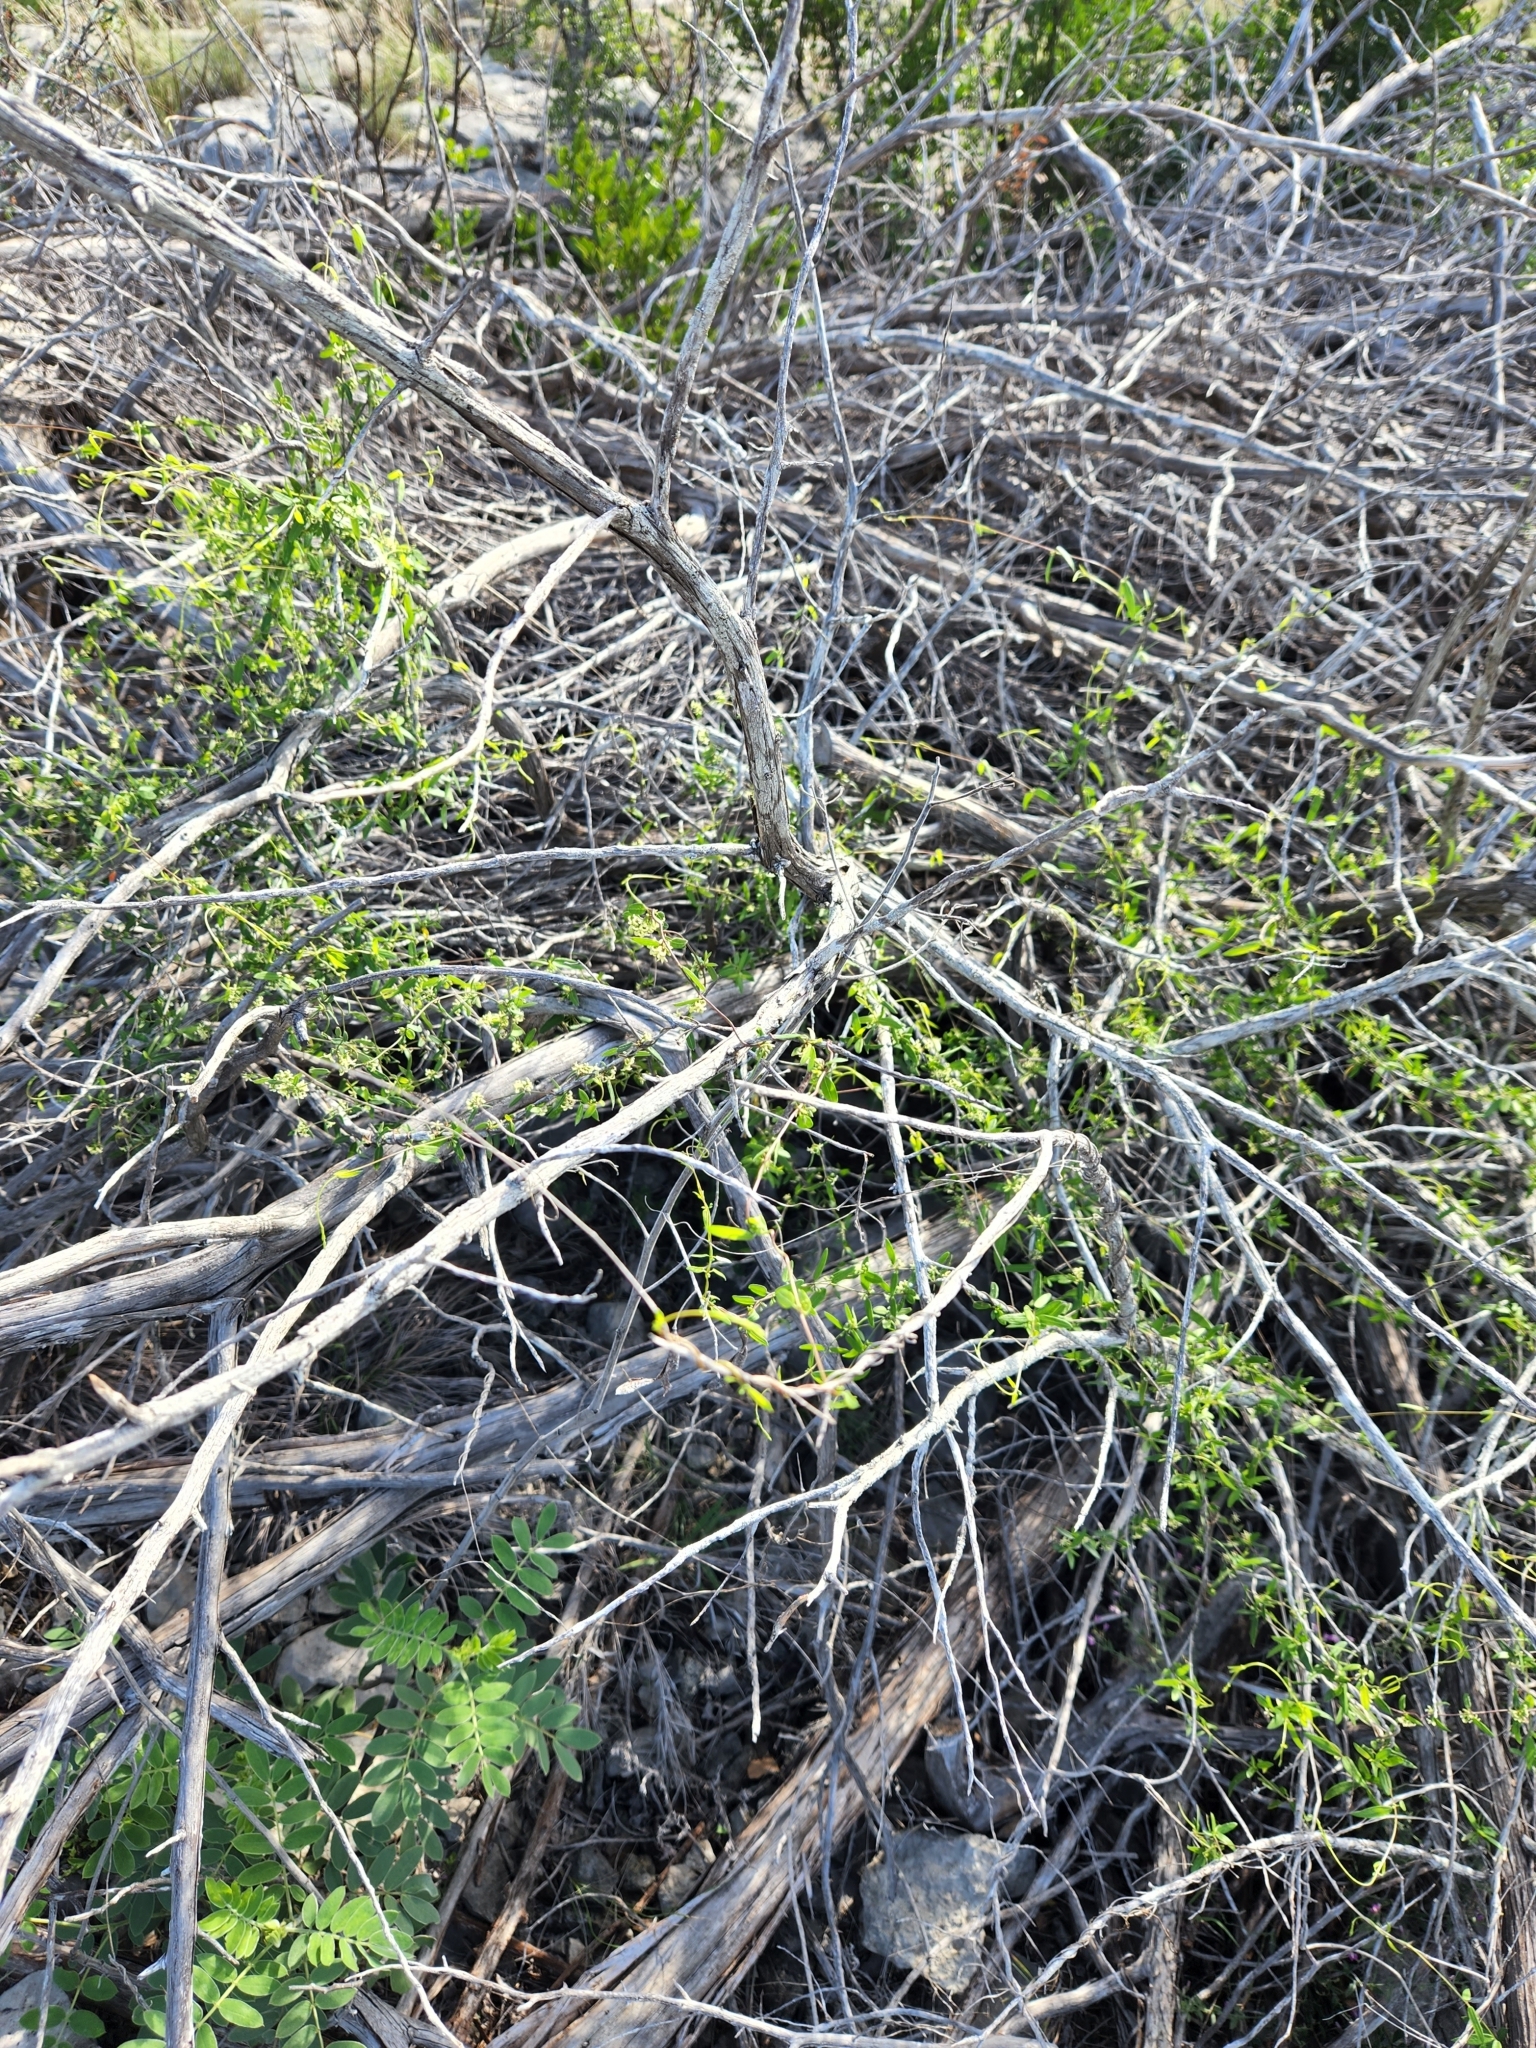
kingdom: Plantae
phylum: Tracheophyta
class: Magnoliopsida
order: Gentianales
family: Apocynaceae
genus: Metastelma
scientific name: Metastelma palmeri
